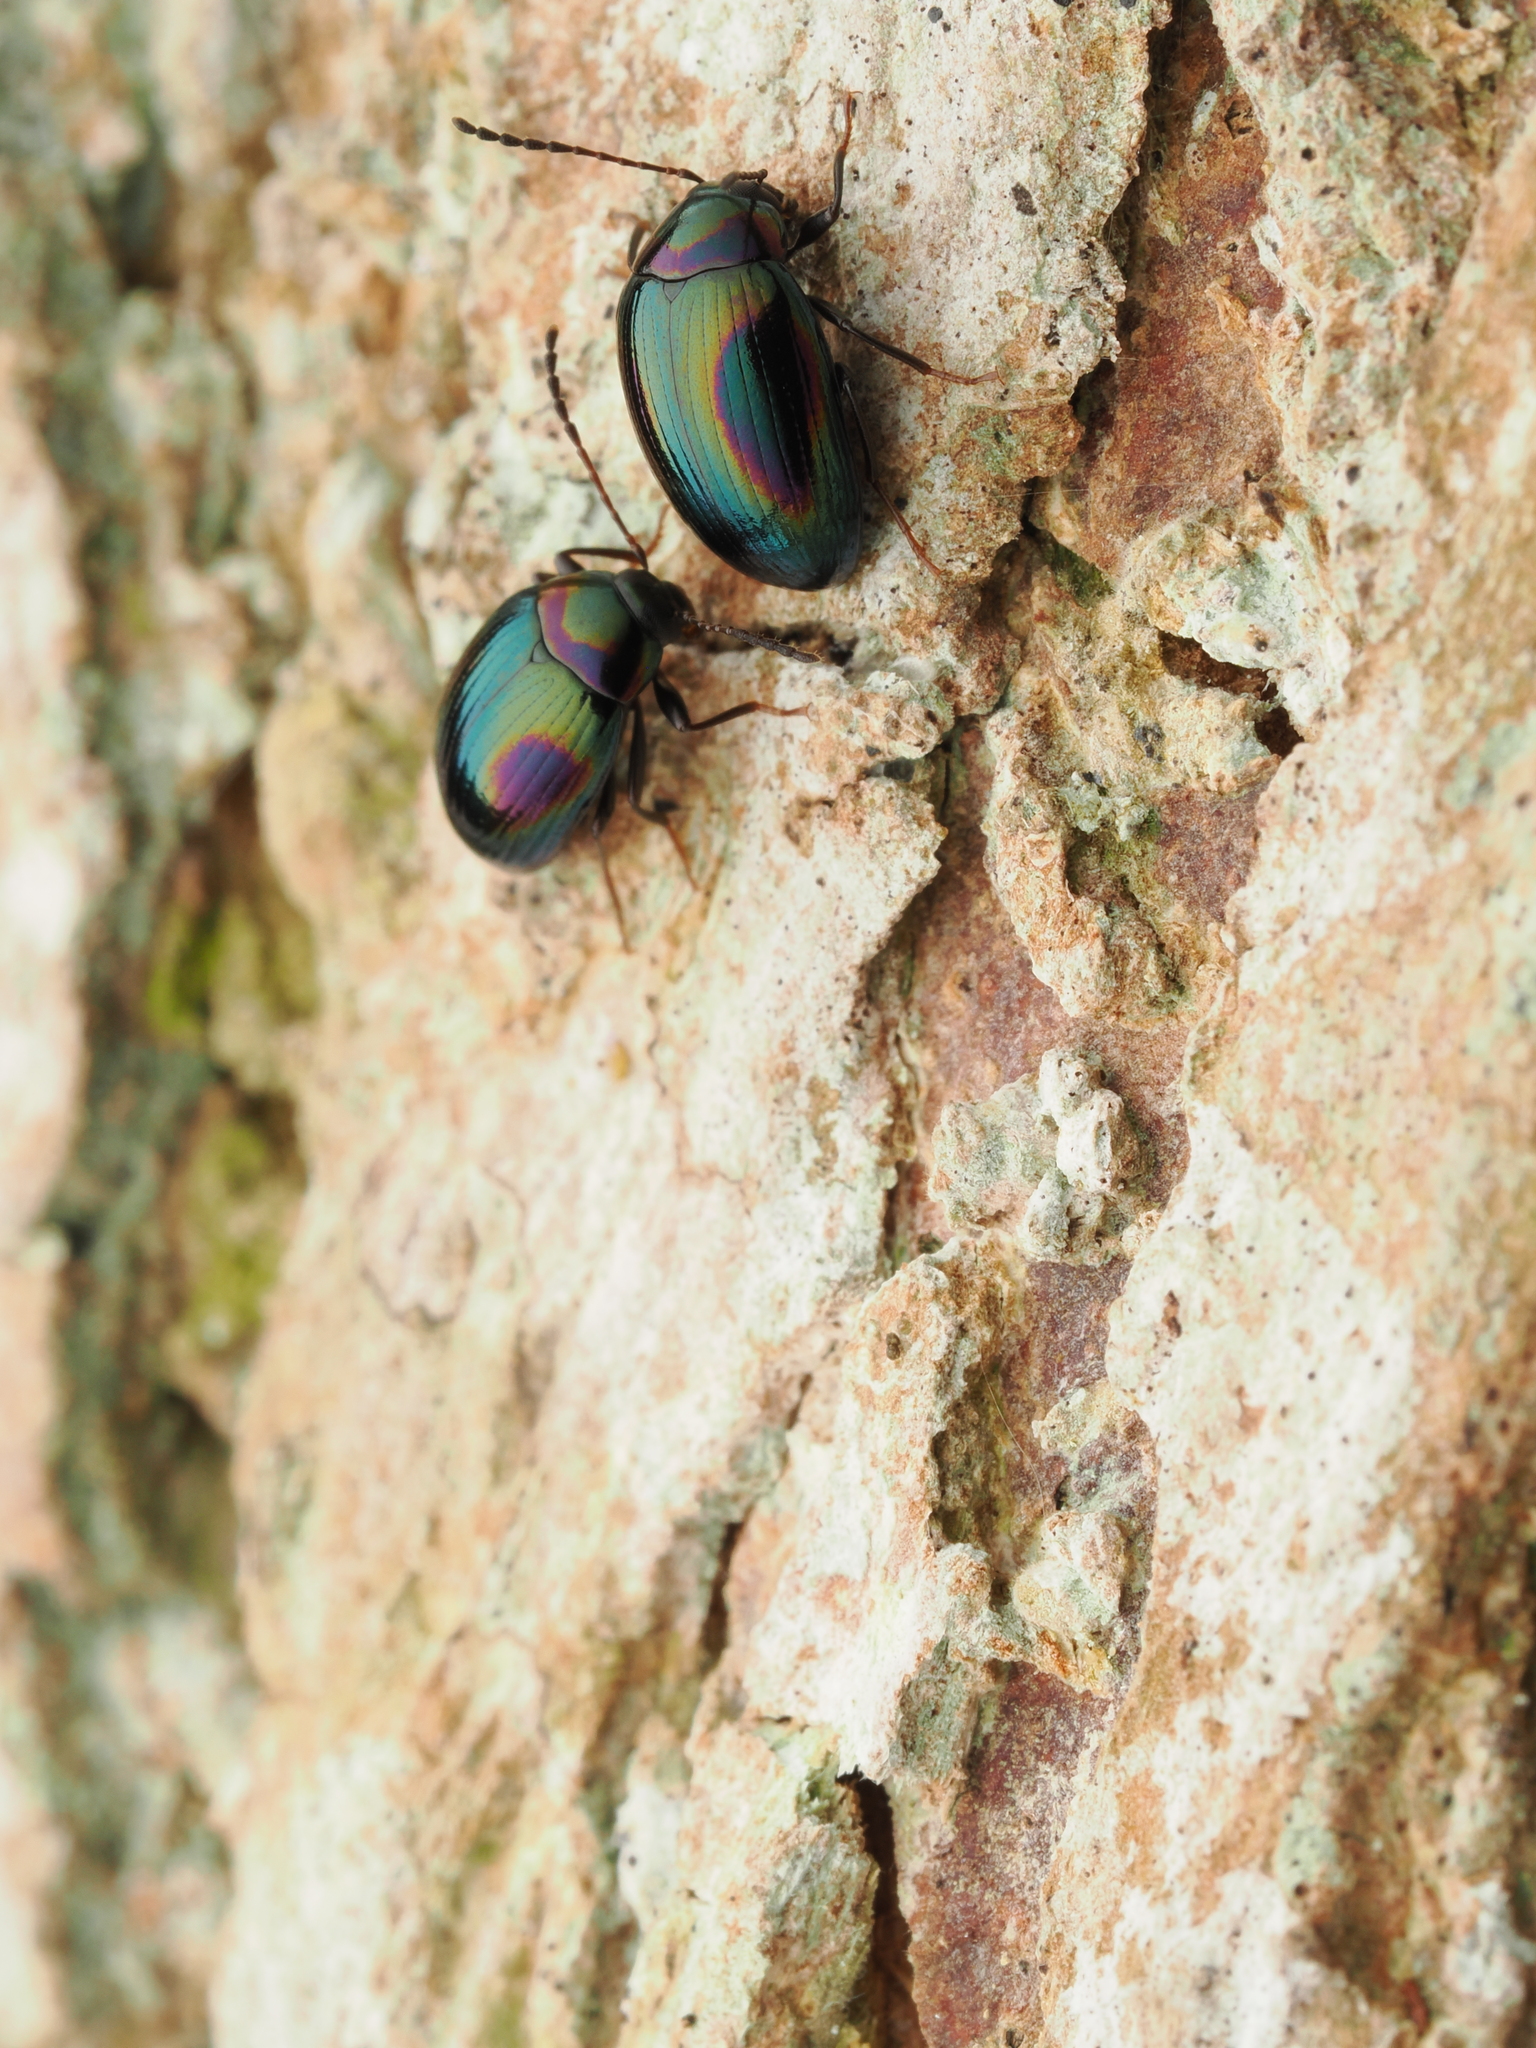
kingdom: Animalia
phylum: Arthropoda
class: Insecta
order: Coleoptera
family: Tenebrionidae
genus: Amarygmus
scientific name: Amarygmus
